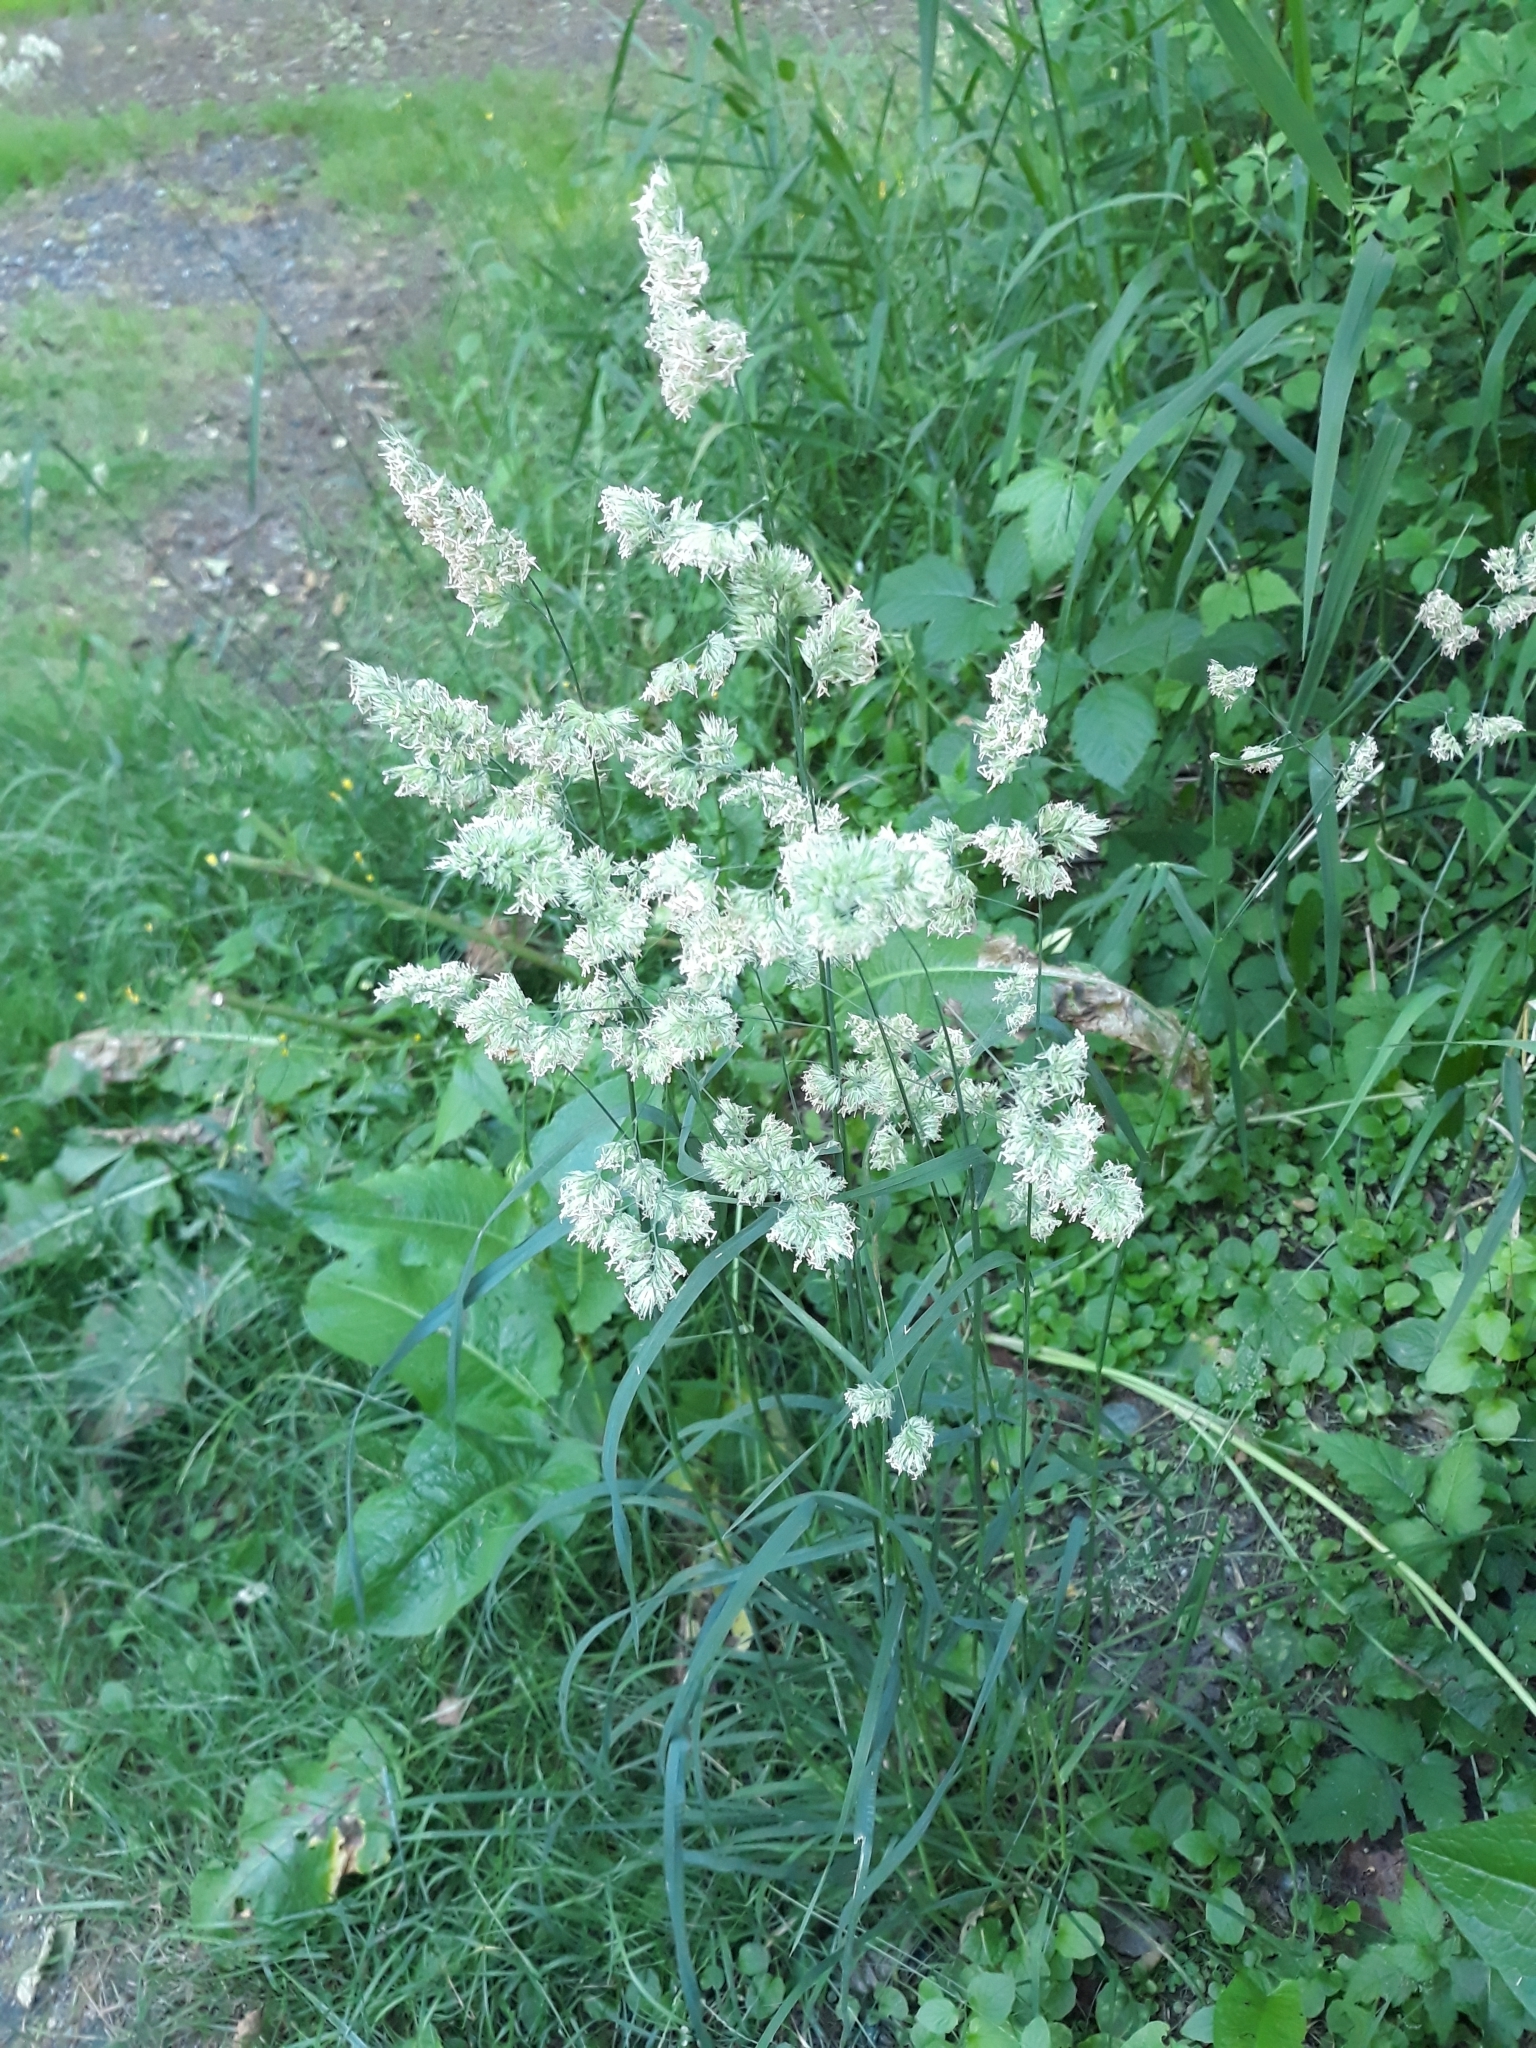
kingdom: Plantae
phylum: Tracheophyta
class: Liliopsida
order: Poales
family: Poaceae
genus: Dactylis
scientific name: Dactylis glomerata
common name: Orchardgrass
